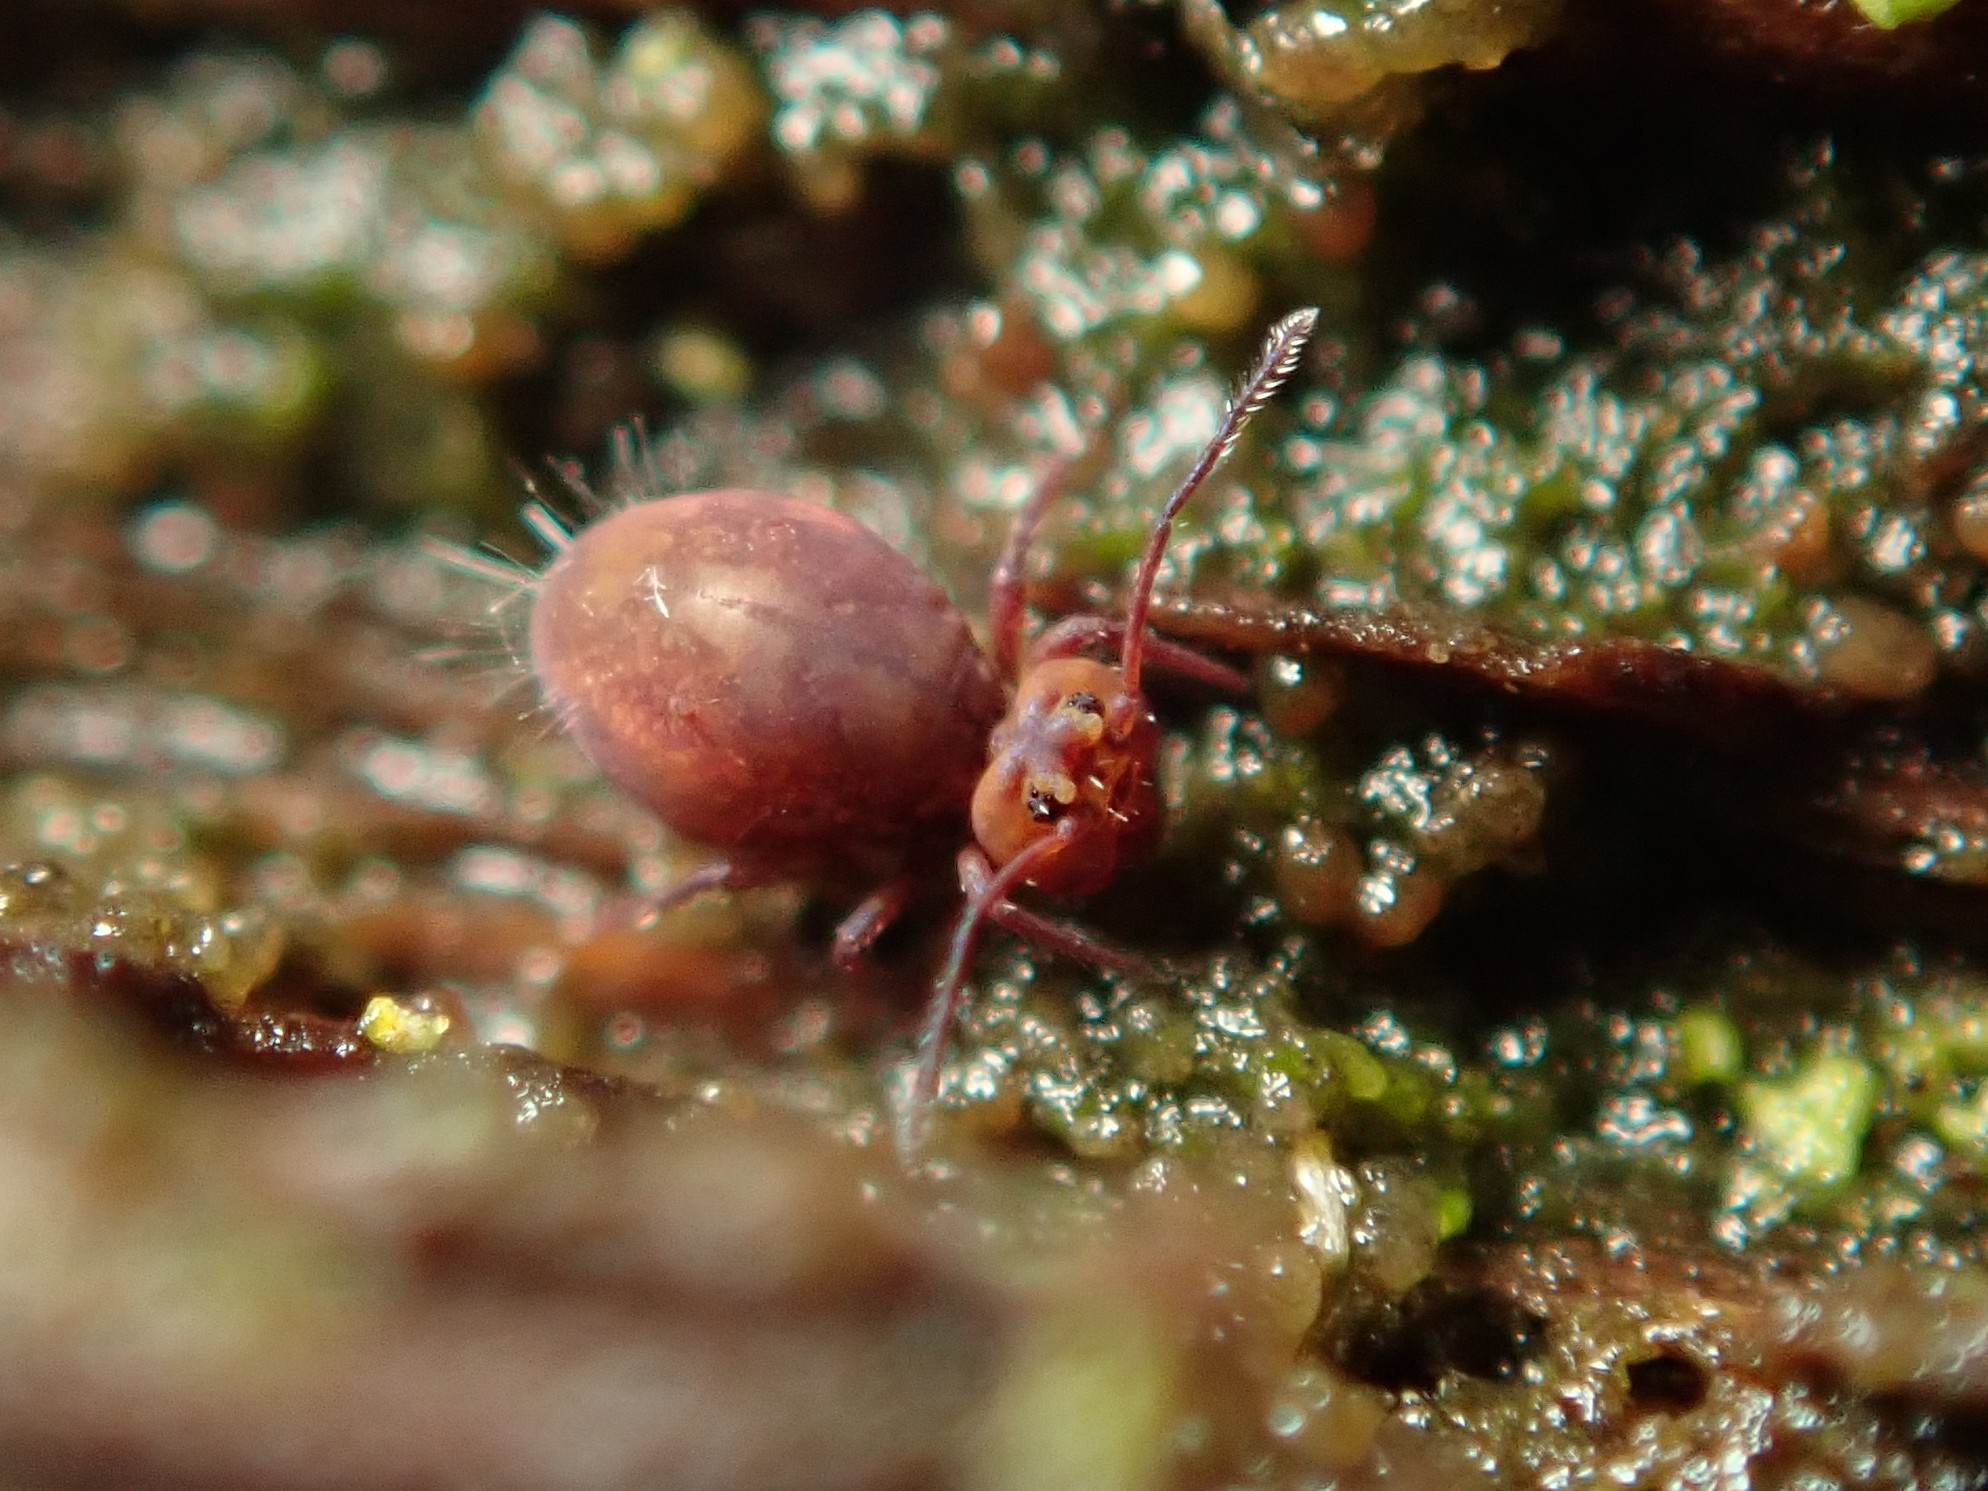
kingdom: Animalia
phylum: Arthropoda
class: Collembola
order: Symphypleona
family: Dicyrtomidae
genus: Dicyrtoma
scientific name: Dicyrtoma fusca
